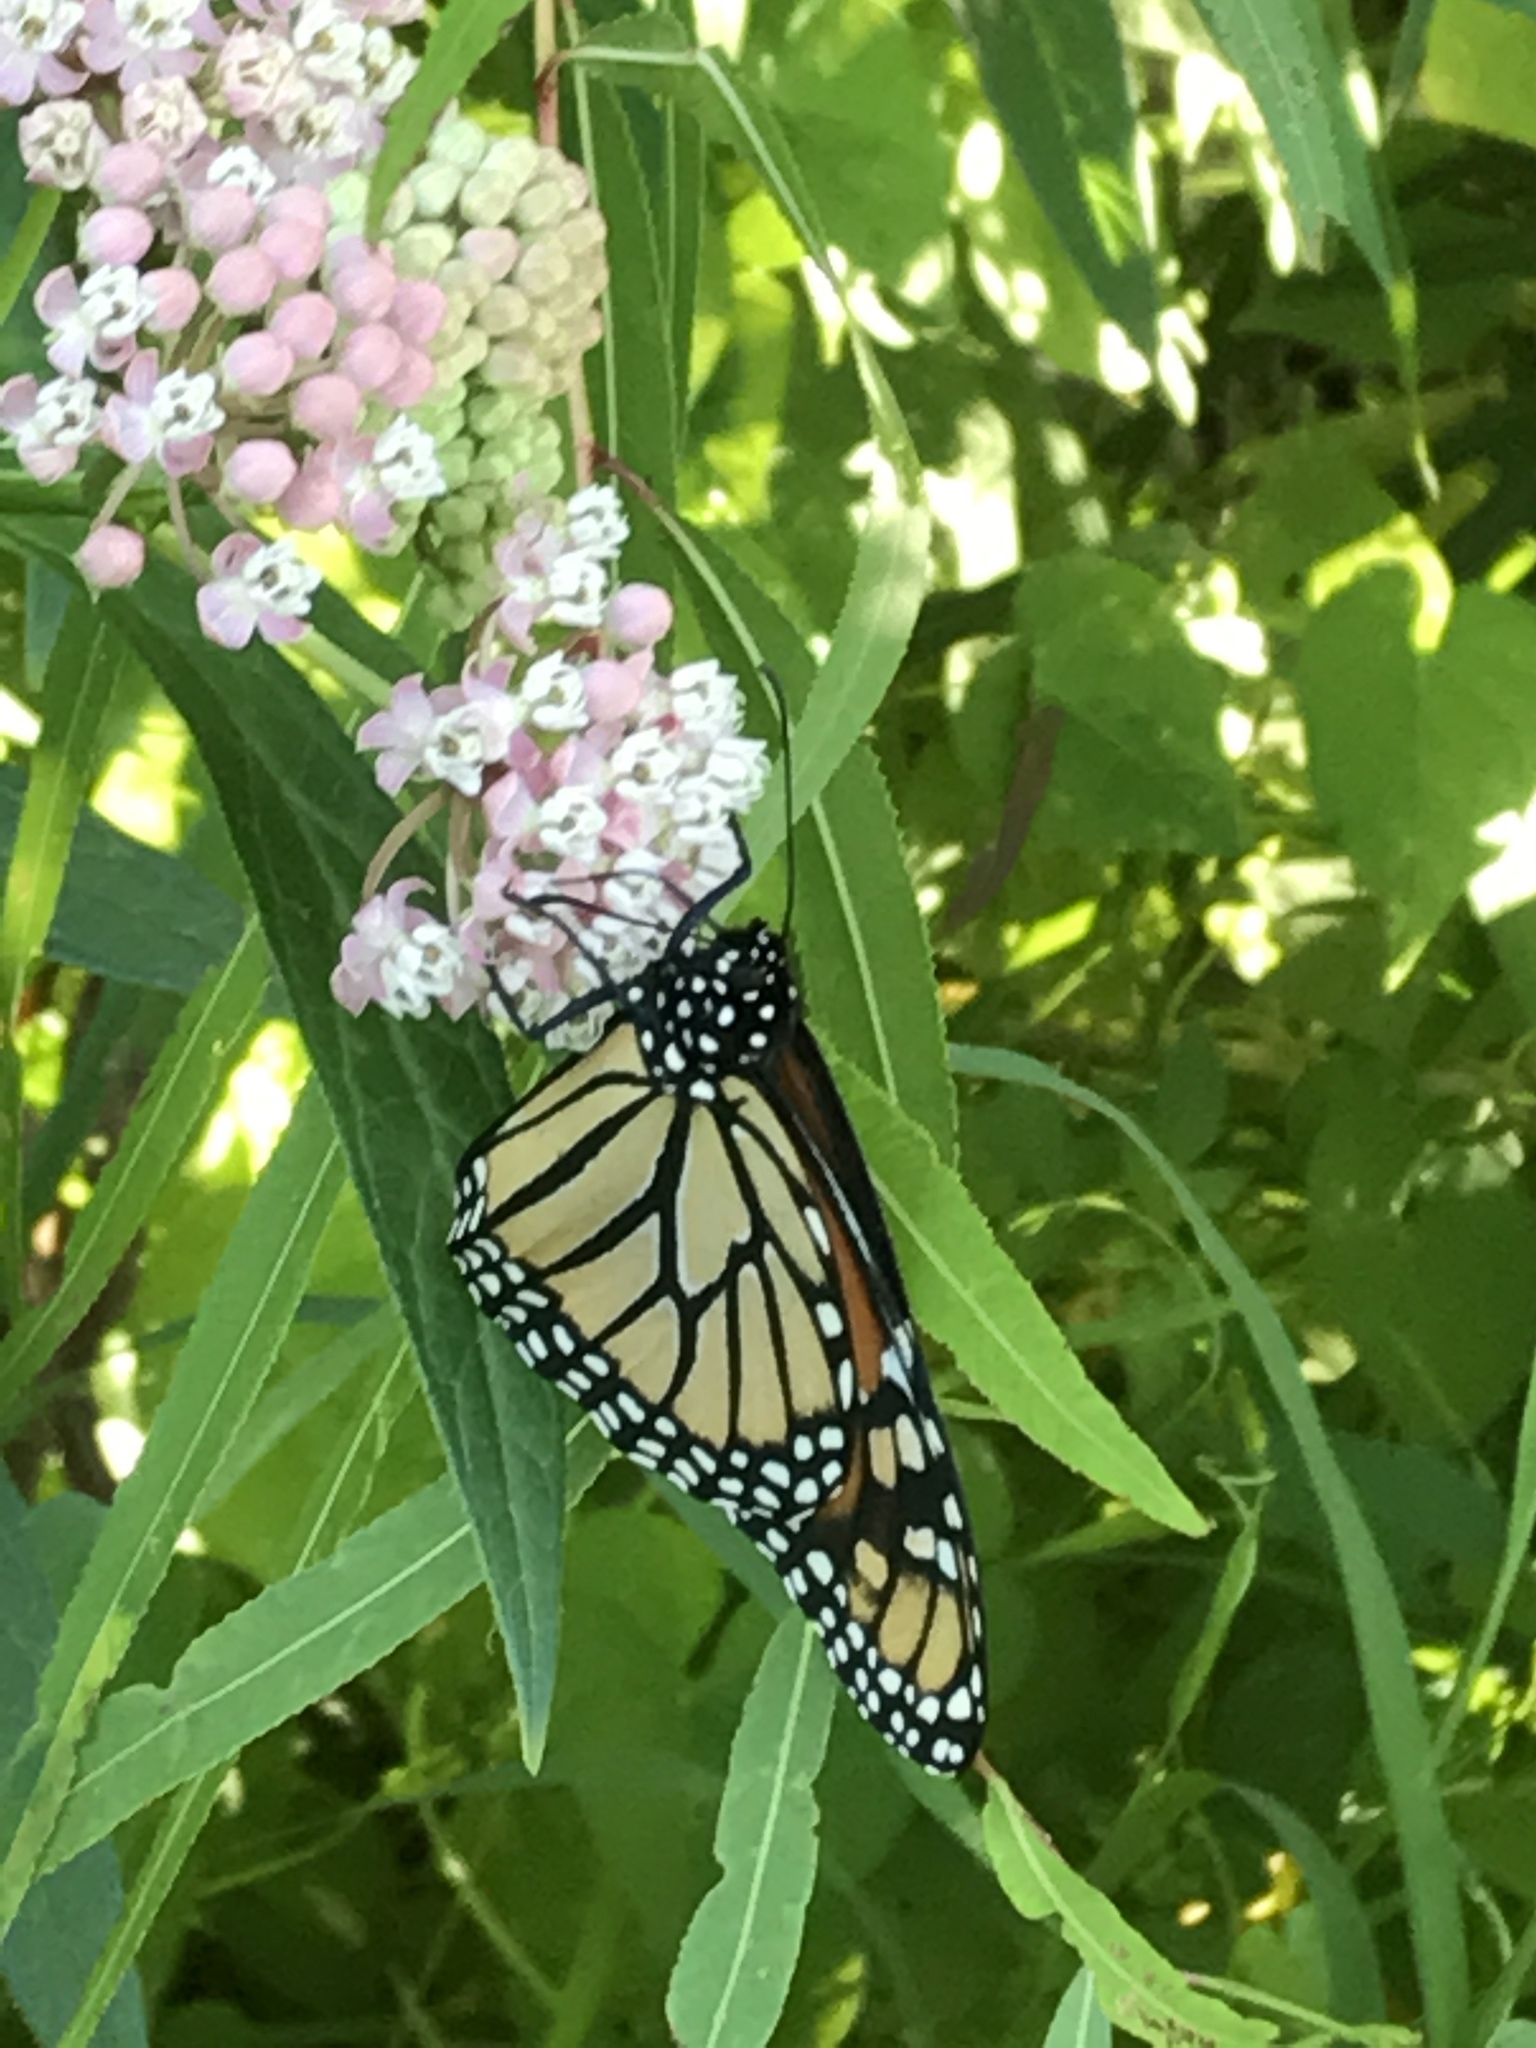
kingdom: Animalia
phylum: Arthropoda
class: Insecta
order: Lepidoptera
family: Nymphalidae
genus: Danaus
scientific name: Danaus plexippus
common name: Monarch
